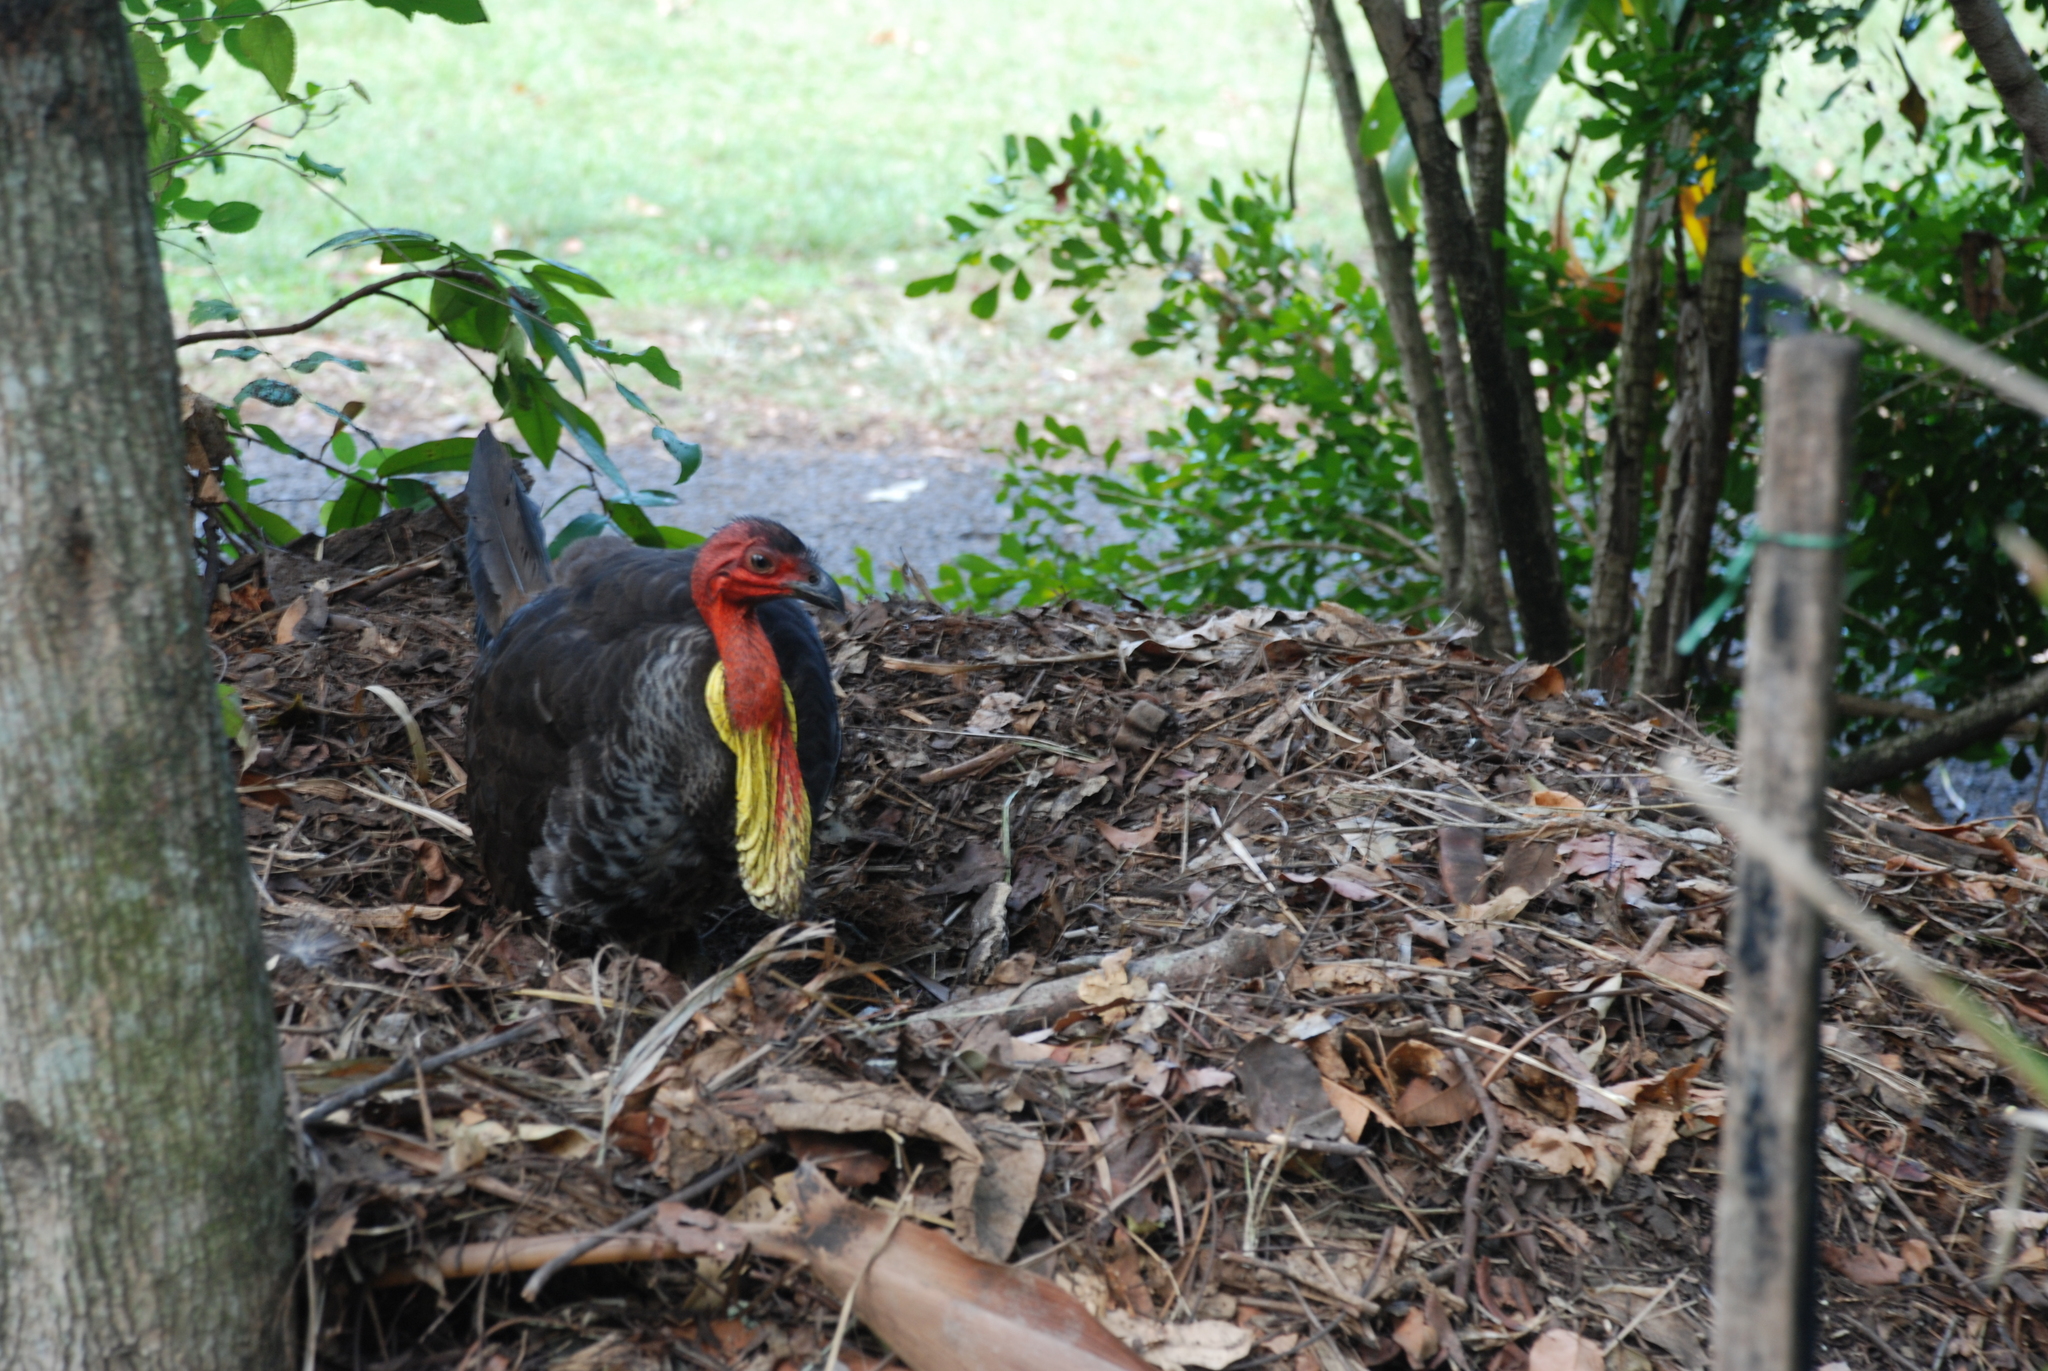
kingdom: Animalia
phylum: Chordata
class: Aves
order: Galliformes
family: Megapodiidae
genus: Alectura
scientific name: Alectura lathami
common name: Australian brushturkey
